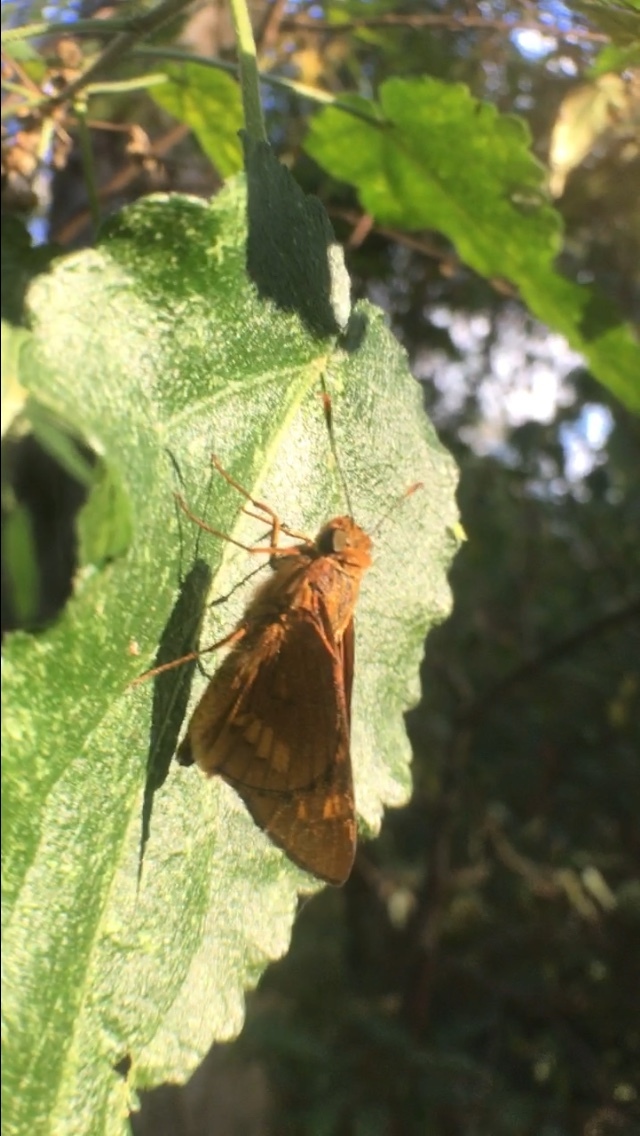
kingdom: Animalia
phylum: Arthropoda
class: Insecta
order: Lepidoptera
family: Hesperiidae
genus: Cephrenes
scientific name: Cephrenes augiades
